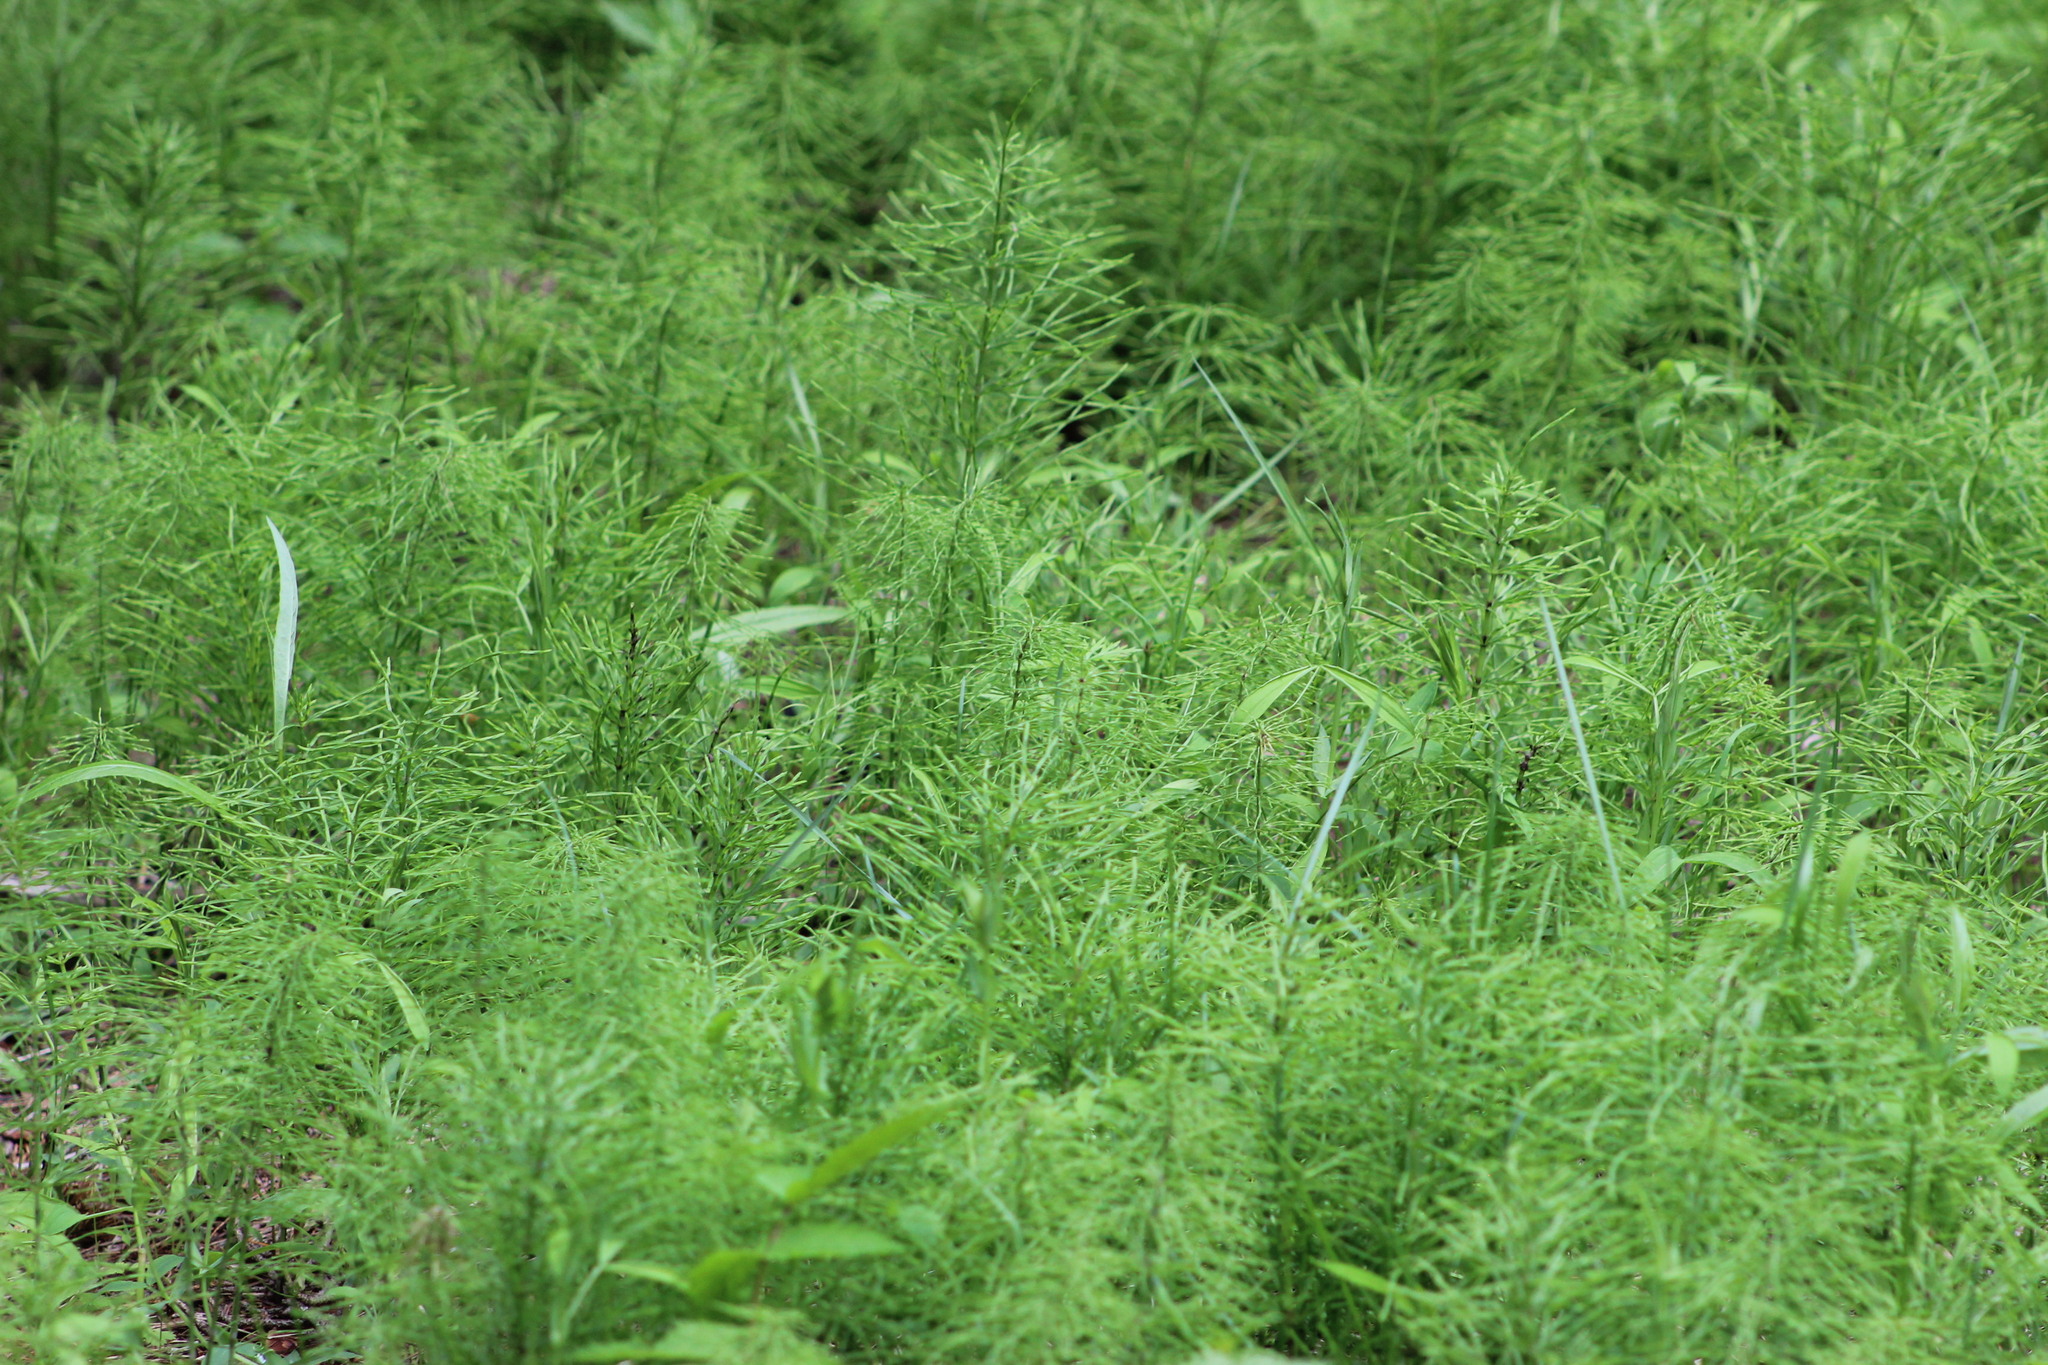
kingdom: Plantae
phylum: Tracheophyta
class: Polypodiopsida
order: Equisetales
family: Equisetaceae
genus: Equisetum
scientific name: Equisetum arvense
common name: Field horsetail
